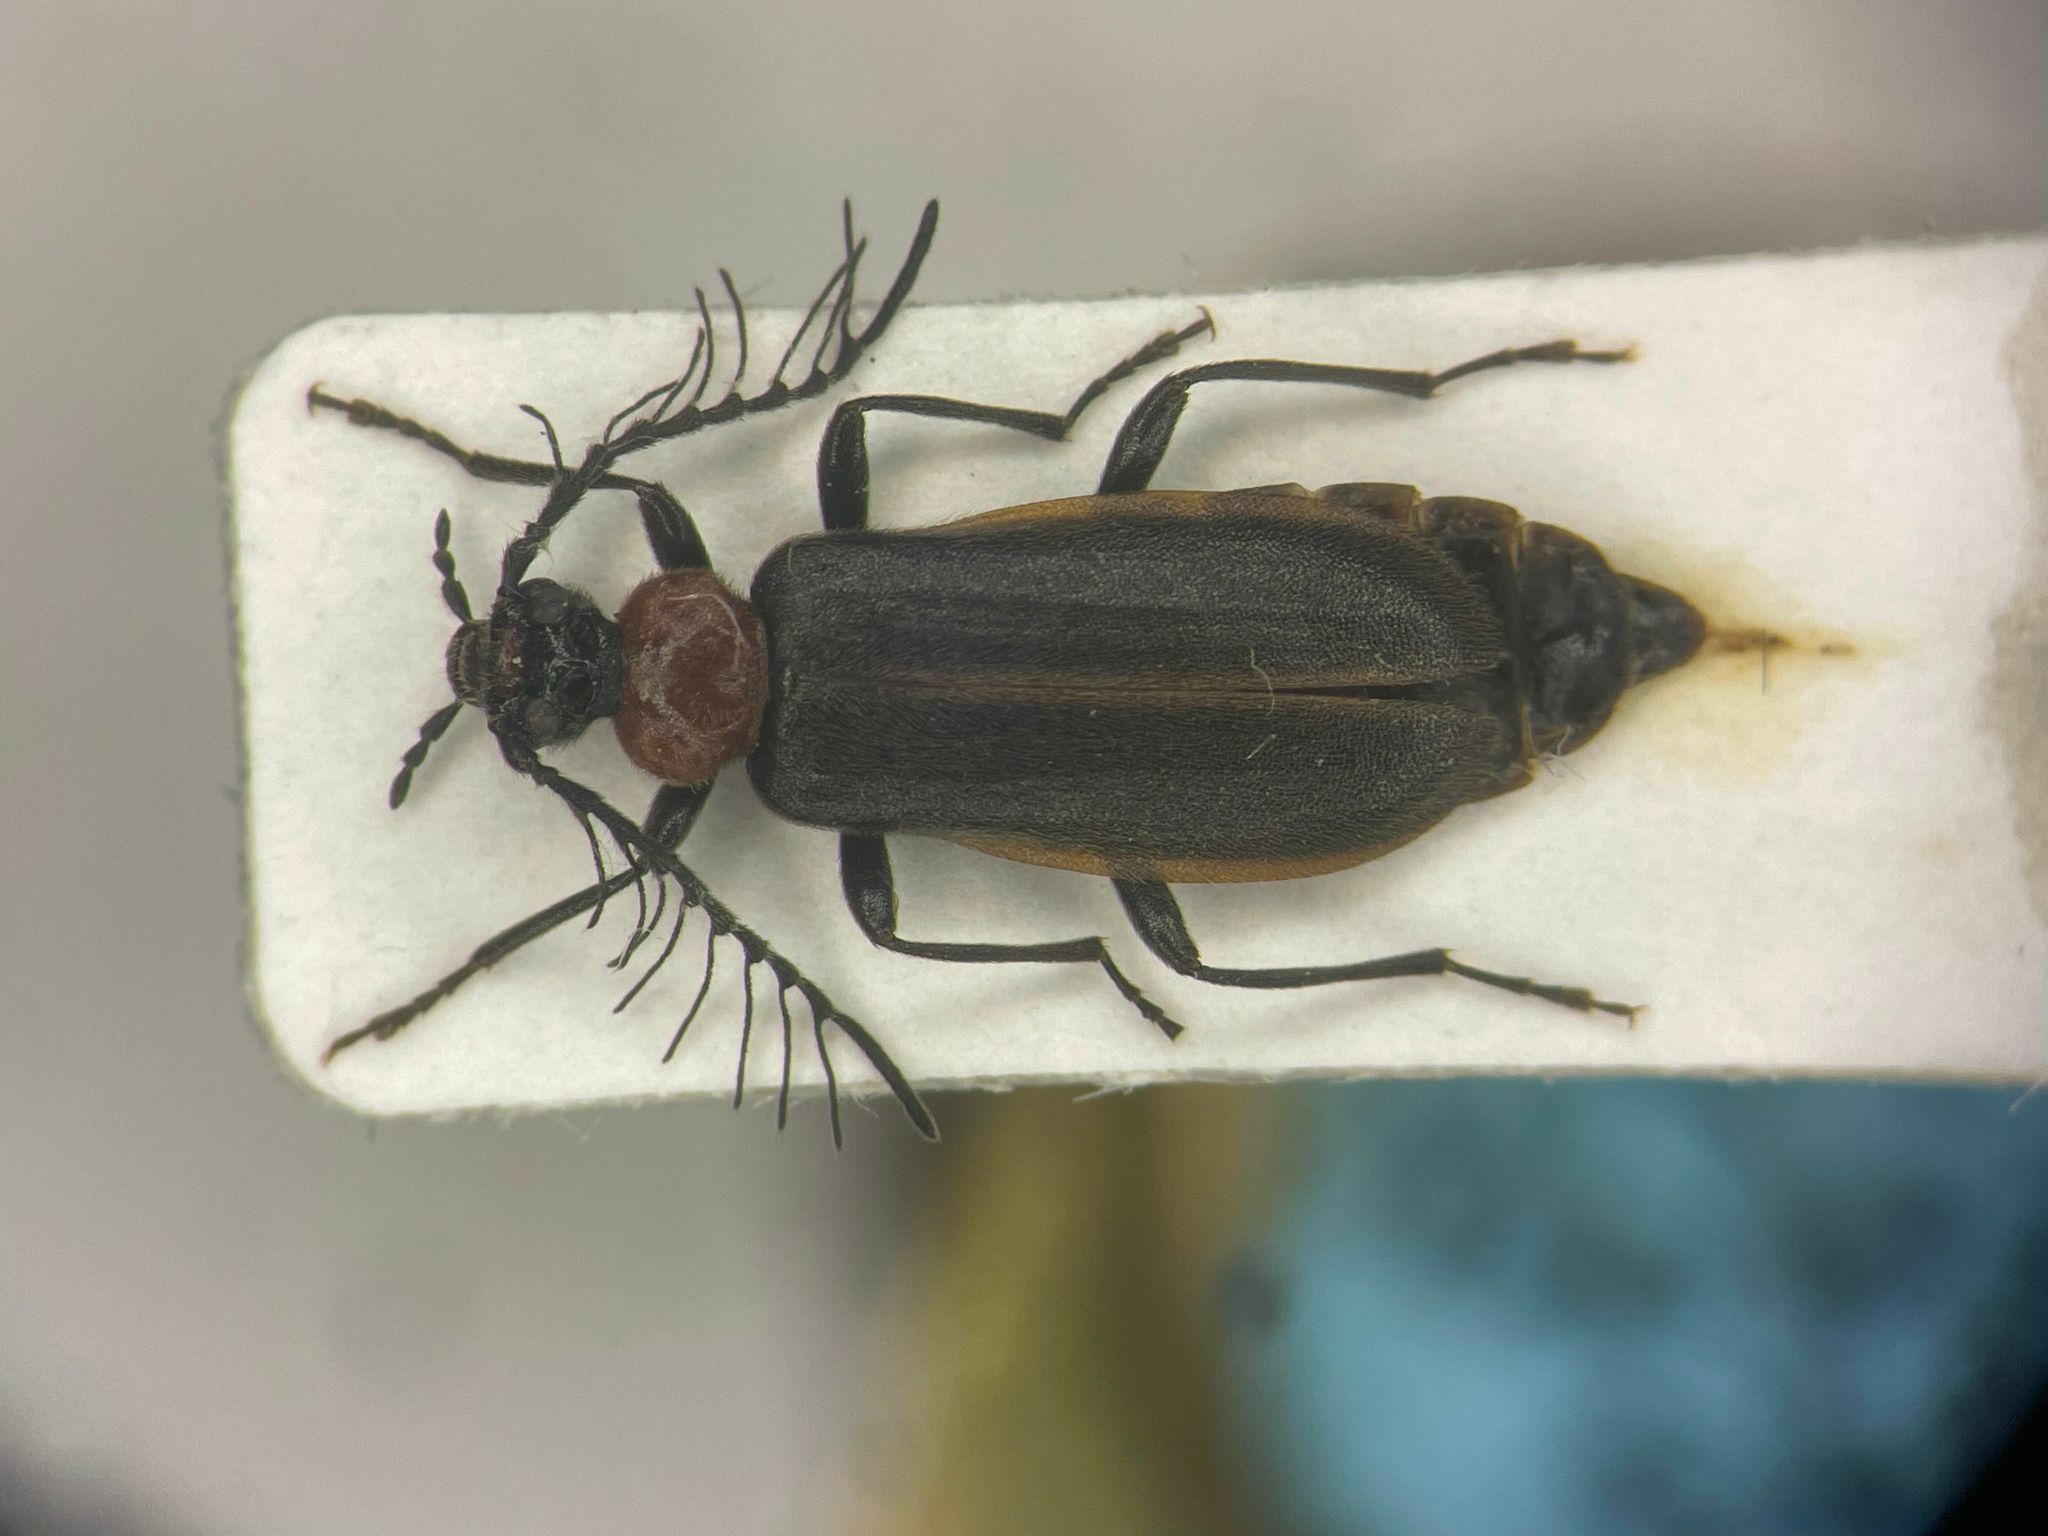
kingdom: Animalia
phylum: Arthropoda
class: Insecta
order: Coleoptera
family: Pyrochroidae
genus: Schizotus
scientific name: Schizotus cervicalis
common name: Flaming-pillow beetle
